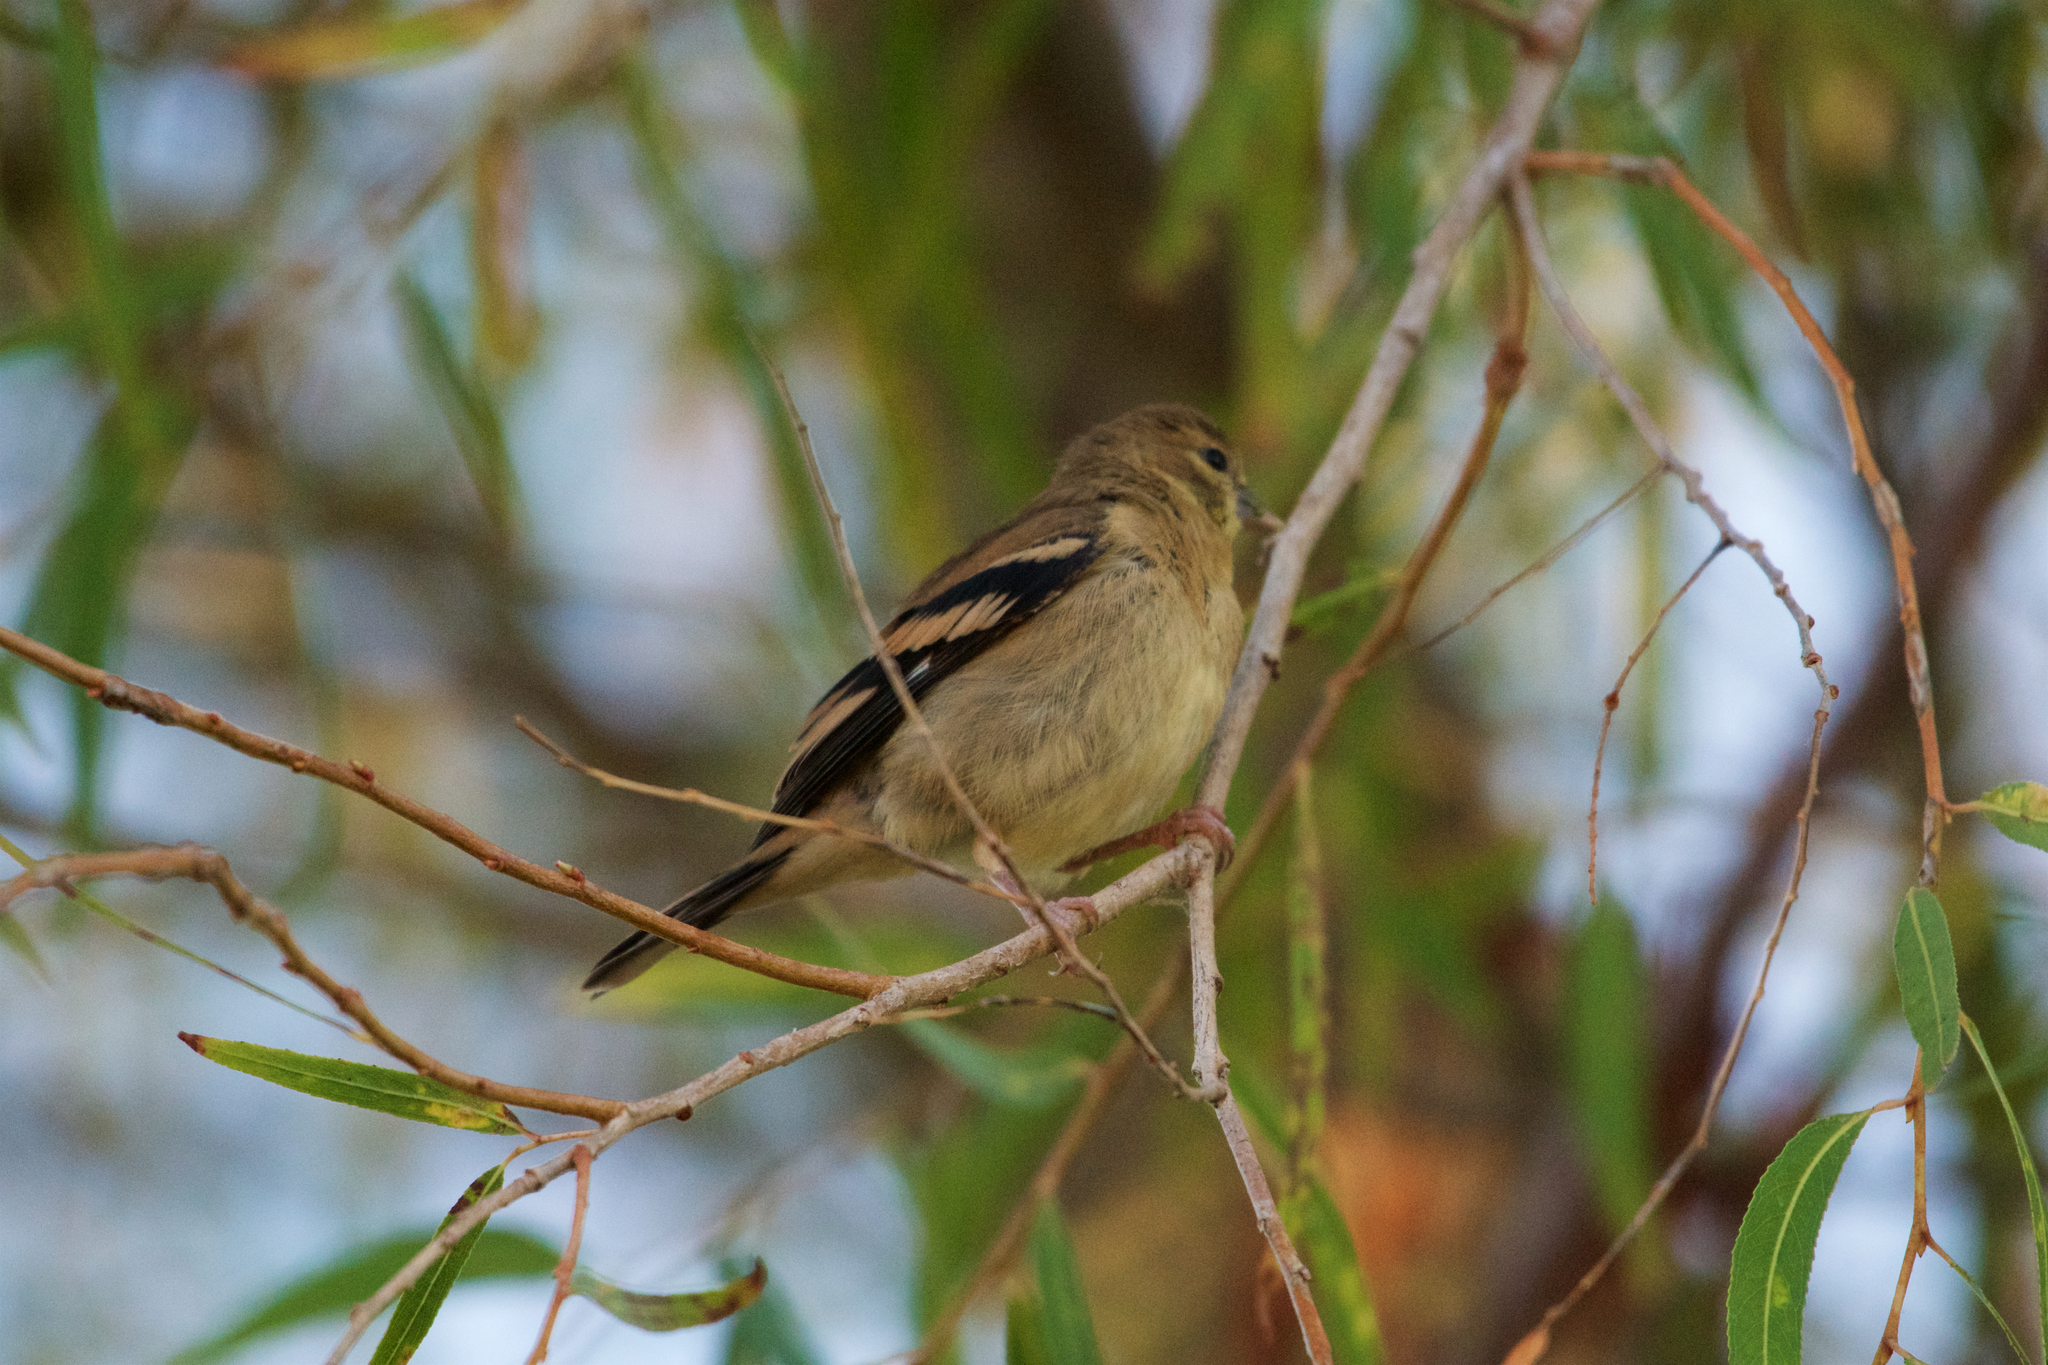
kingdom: Animalia
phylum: Chordata
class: Aves
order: Passeriformes
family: Fringillidae
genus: Spinus
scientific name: Spinus tristis
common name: American goldfinch
